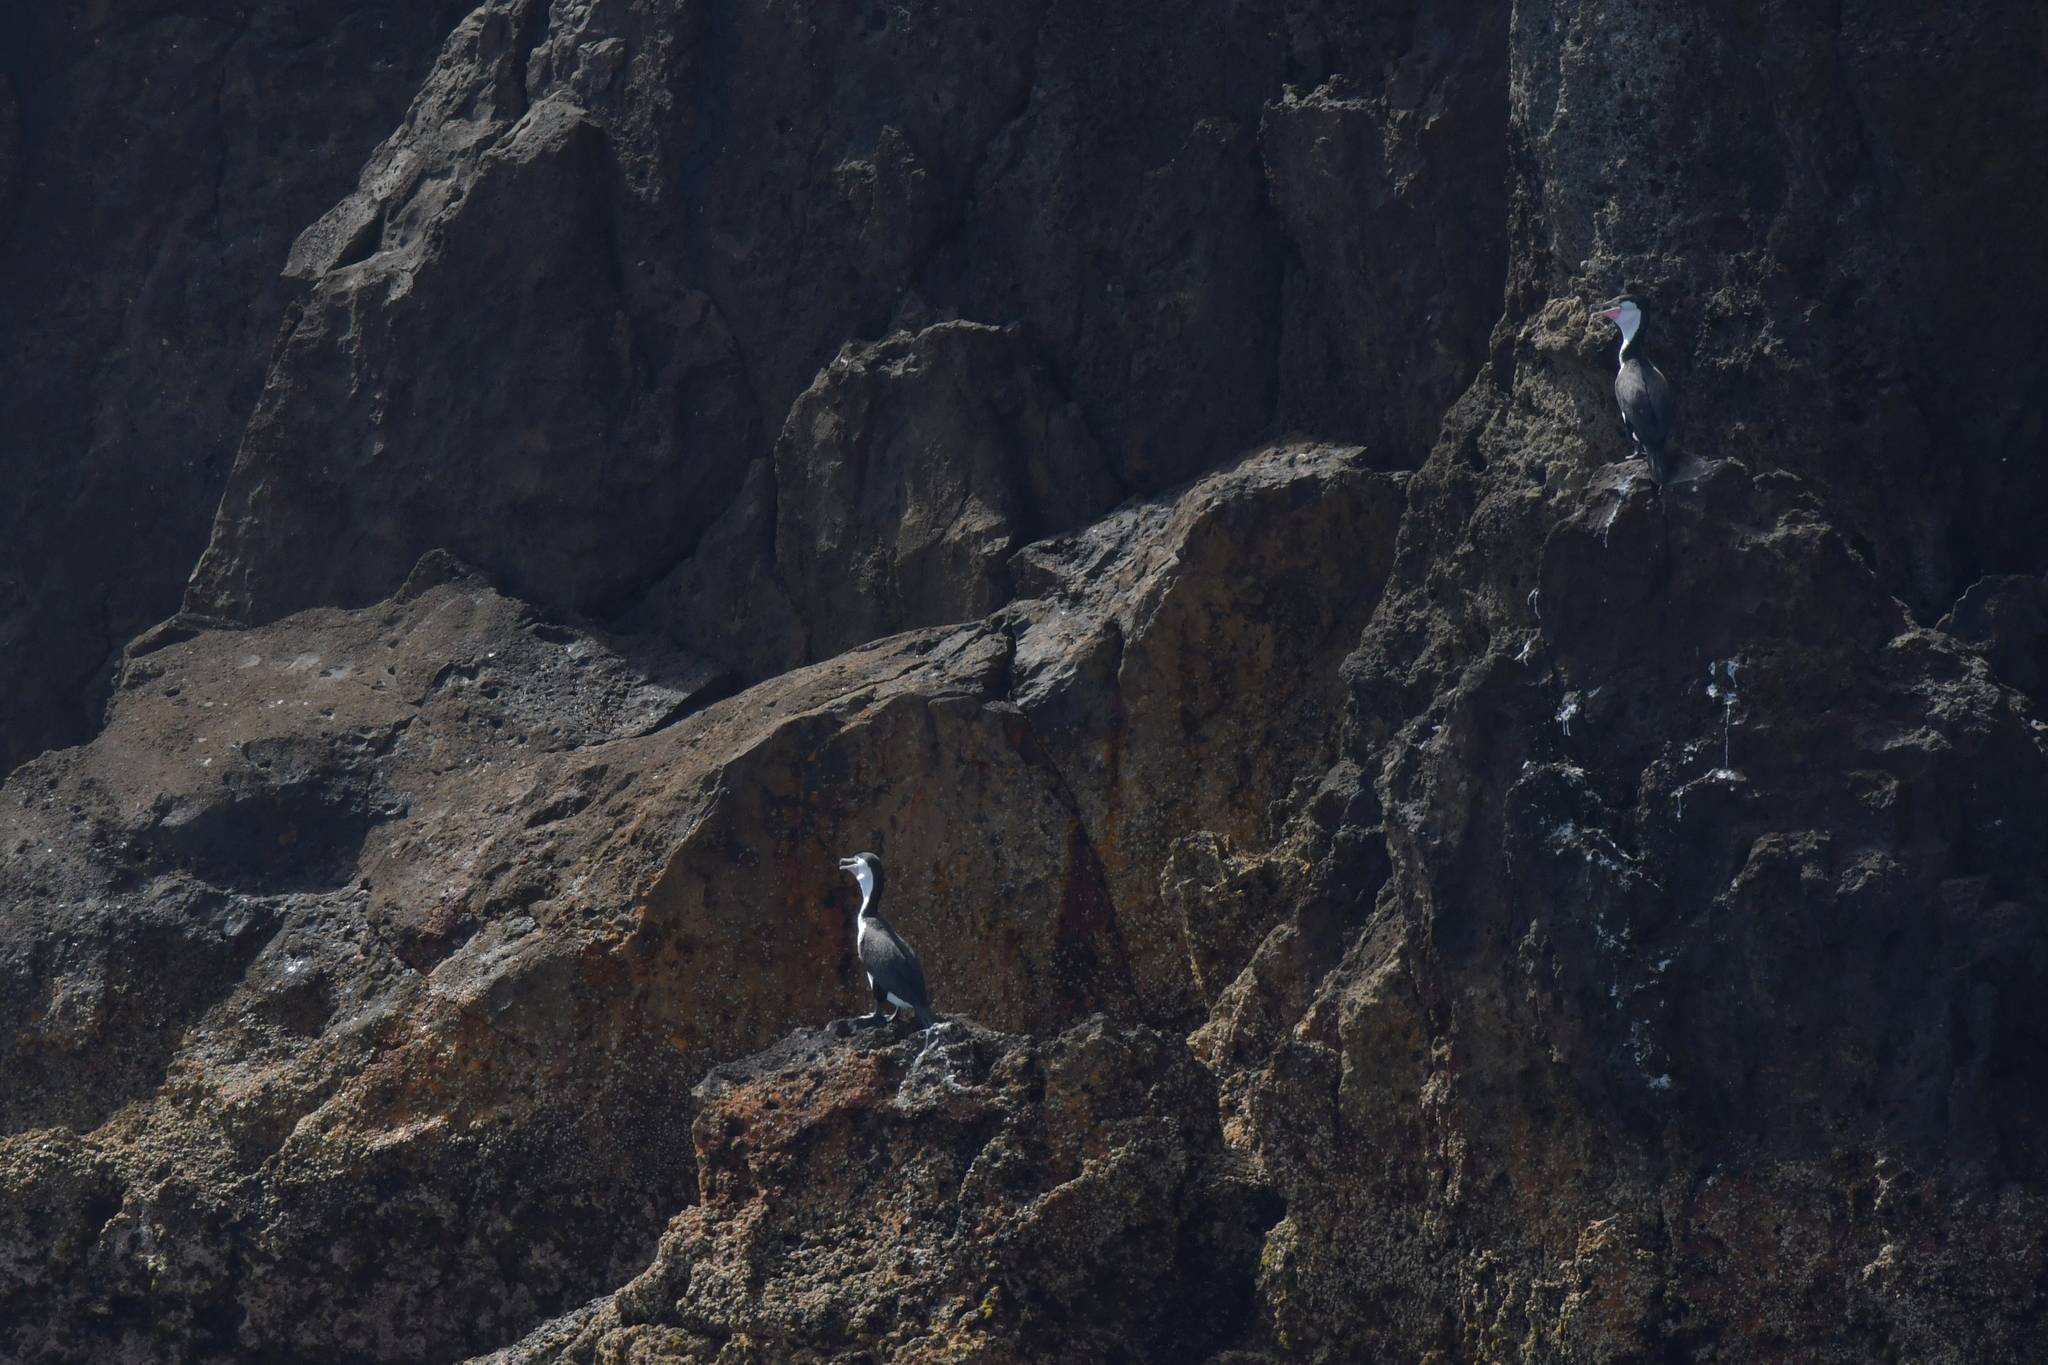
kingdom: Animalia
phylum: Chordata
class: Aves
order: Suliformes
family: Phalacrocoracidae
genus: Phalacrocorax
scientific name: Phalacrocorax varius
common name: Pied cormorant
